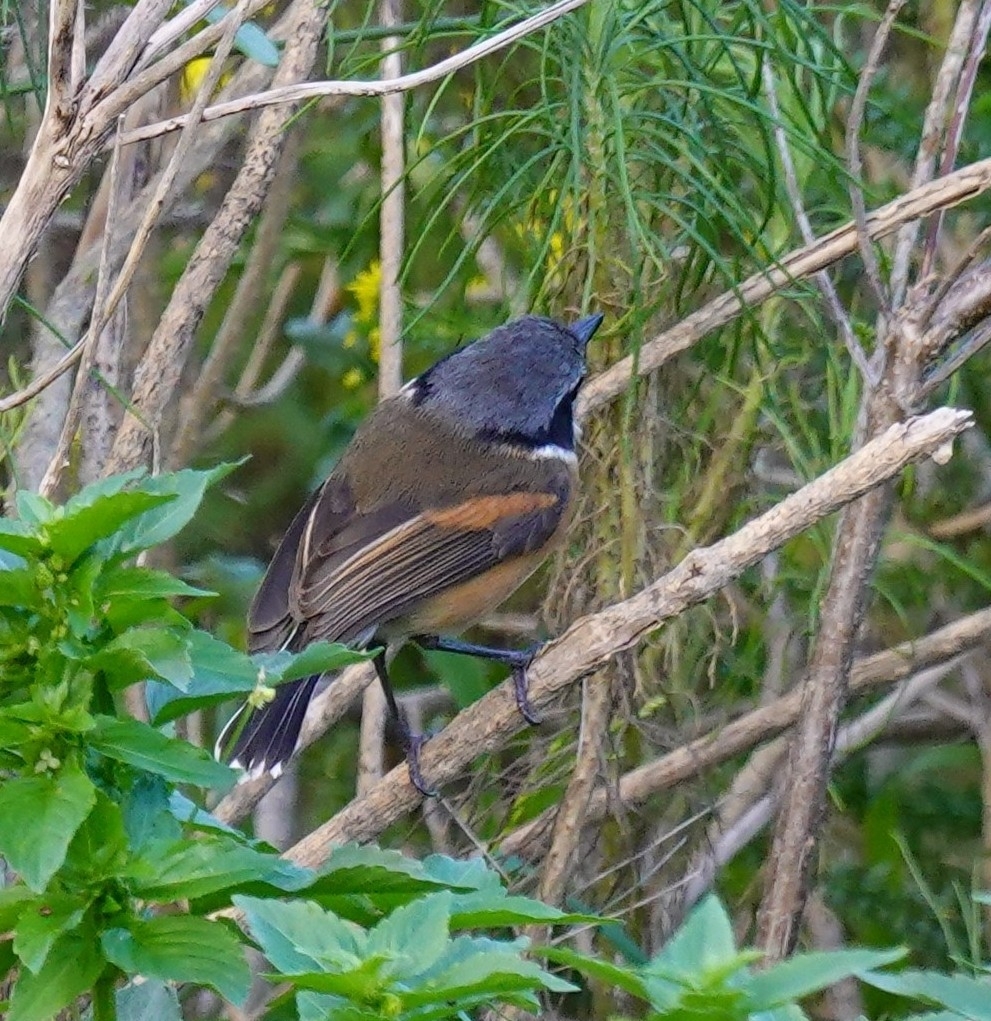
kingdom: Animalia
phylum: Chordata
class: Aves
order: Passeriformes
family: Platysteiridae
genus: Batis
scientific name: Batis capensis
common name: Cape batis
